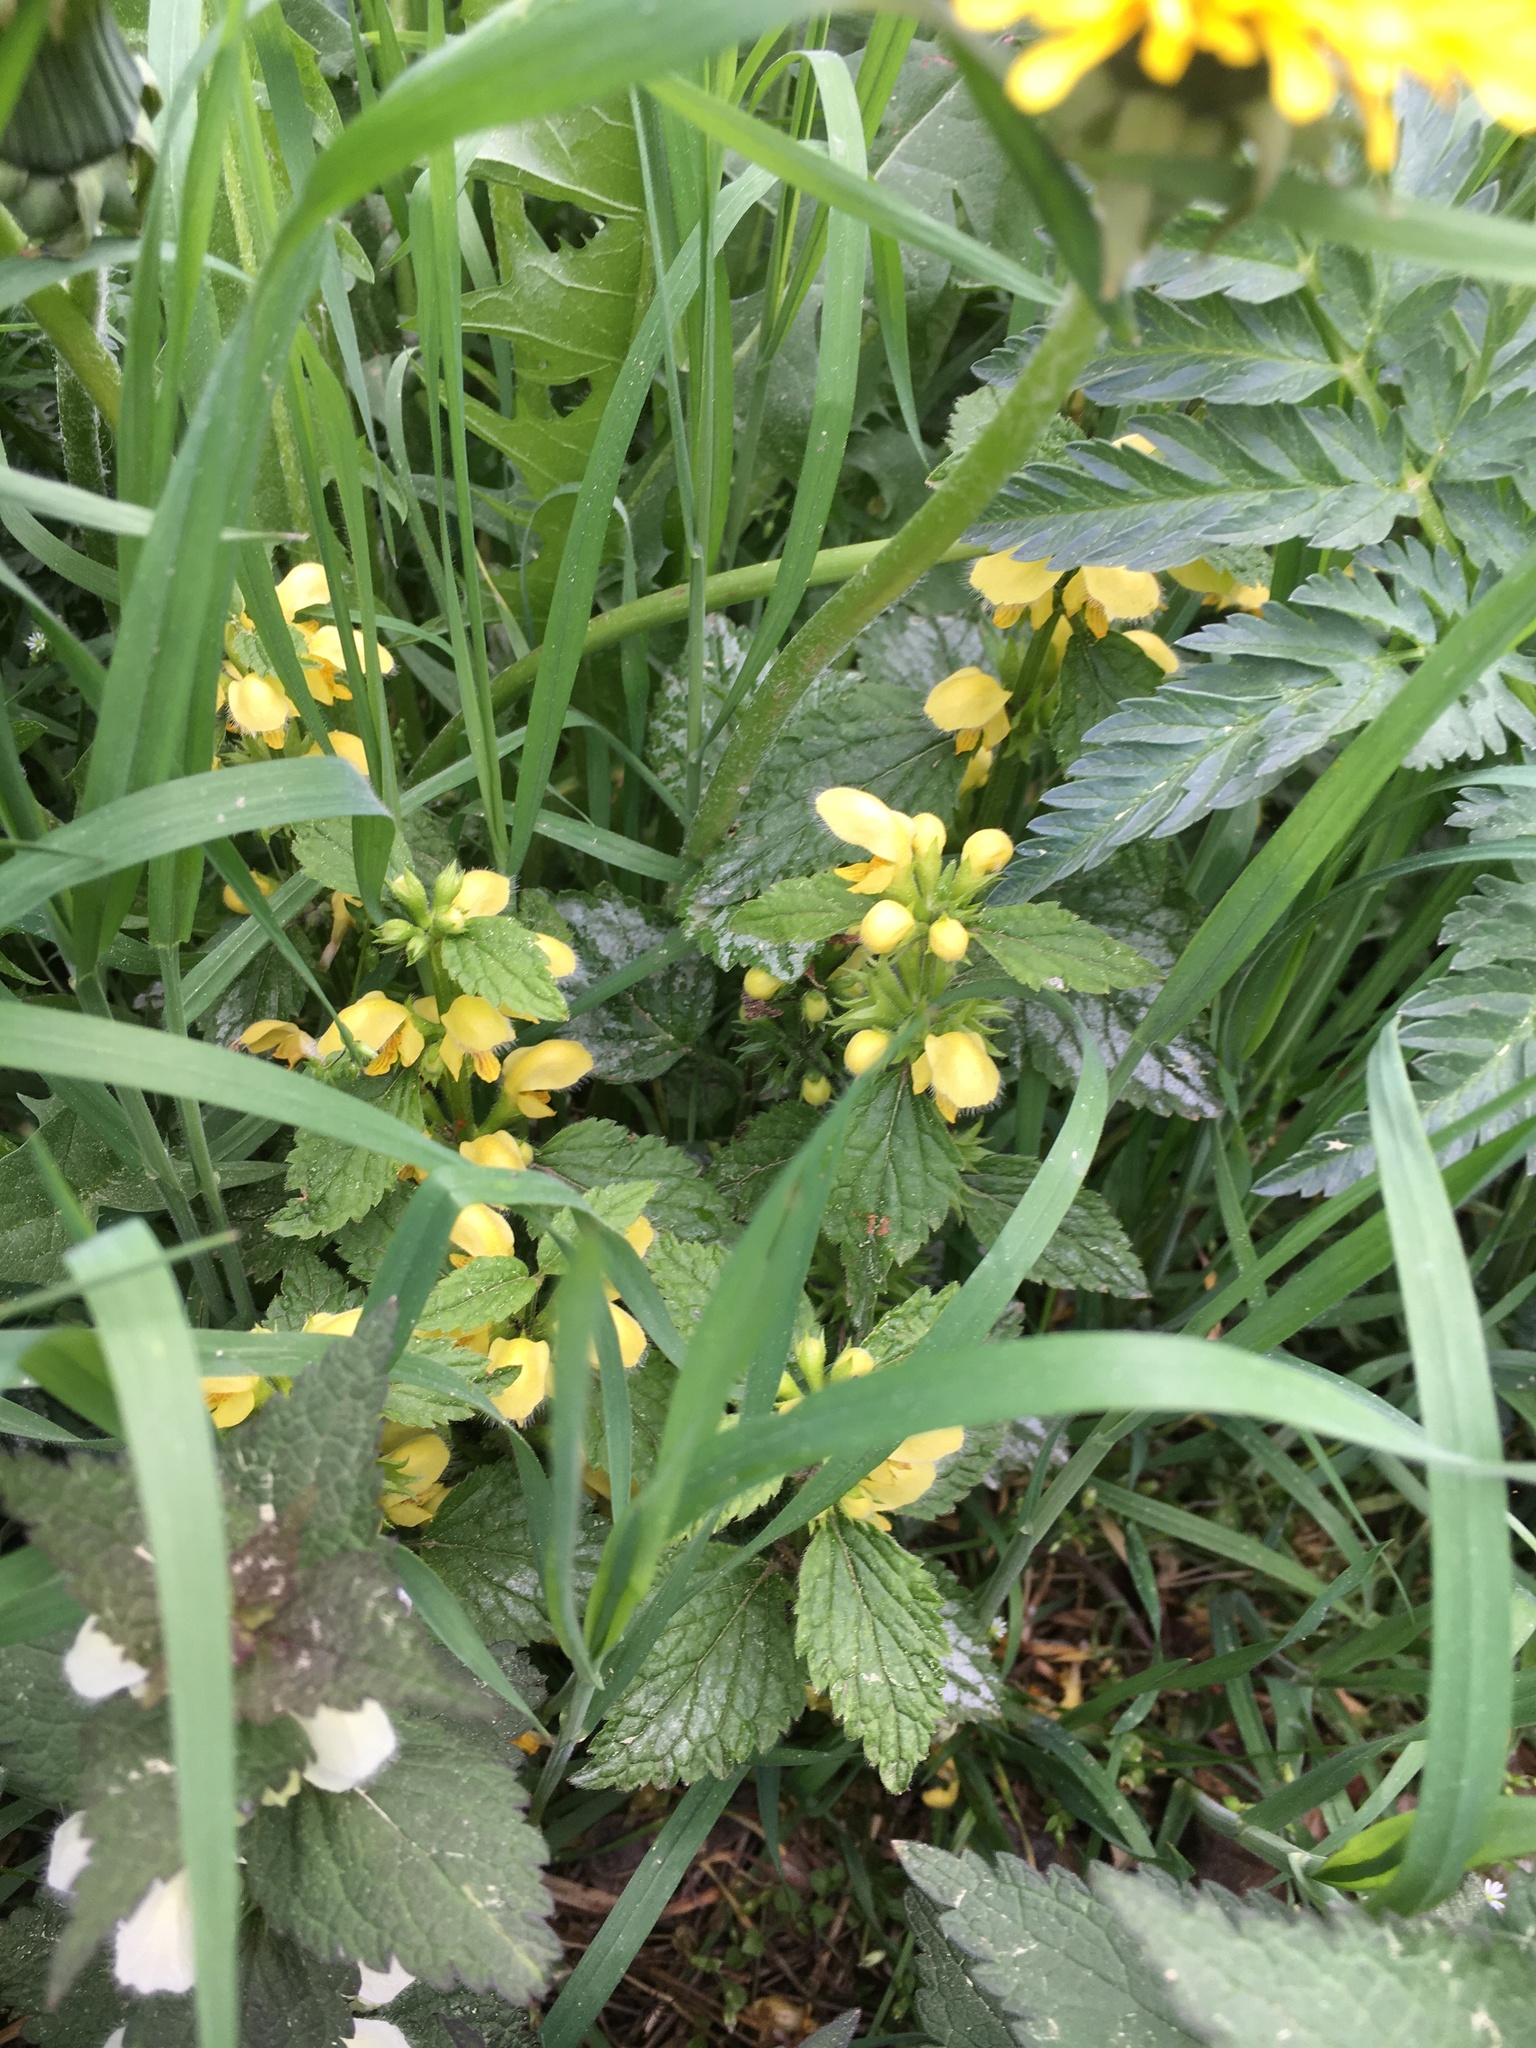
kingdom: Plantae
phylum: Tracheophyta
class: Magnoliopsida
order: Lamiales
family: Lamiaceae
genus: Lamium
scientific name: Lamium galeobdolon
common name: Yellow archangel
